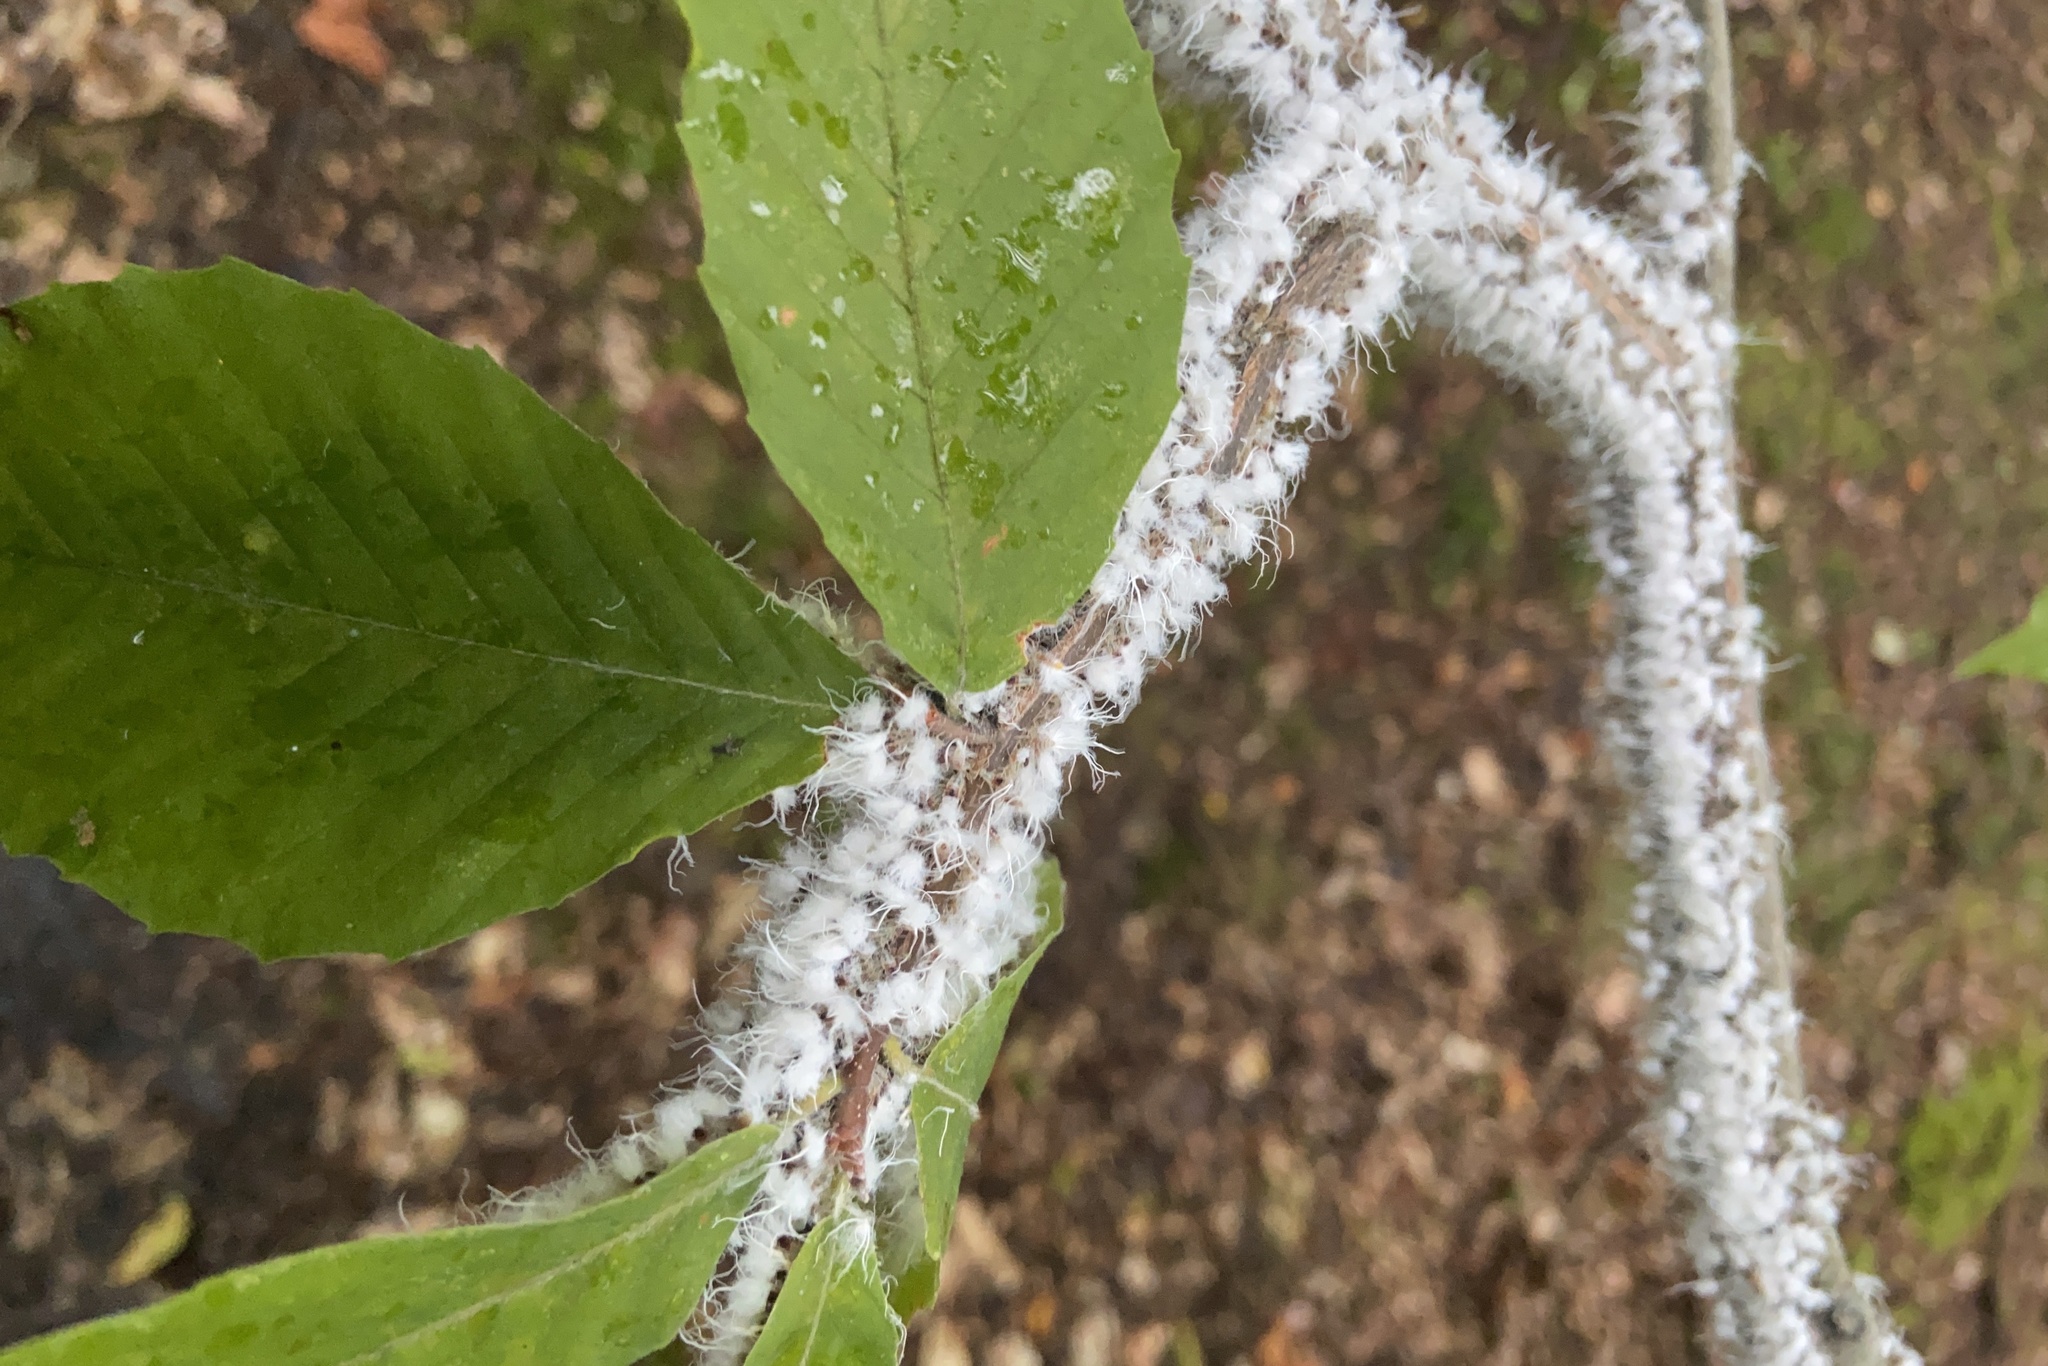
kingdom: Animalia
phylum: Arthropoda
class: Insecta
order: Hemiptera
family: Aphididae
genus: Grylloprociphilus
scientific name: Grylloprociphilus imbricator
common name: Beech blight aphid
